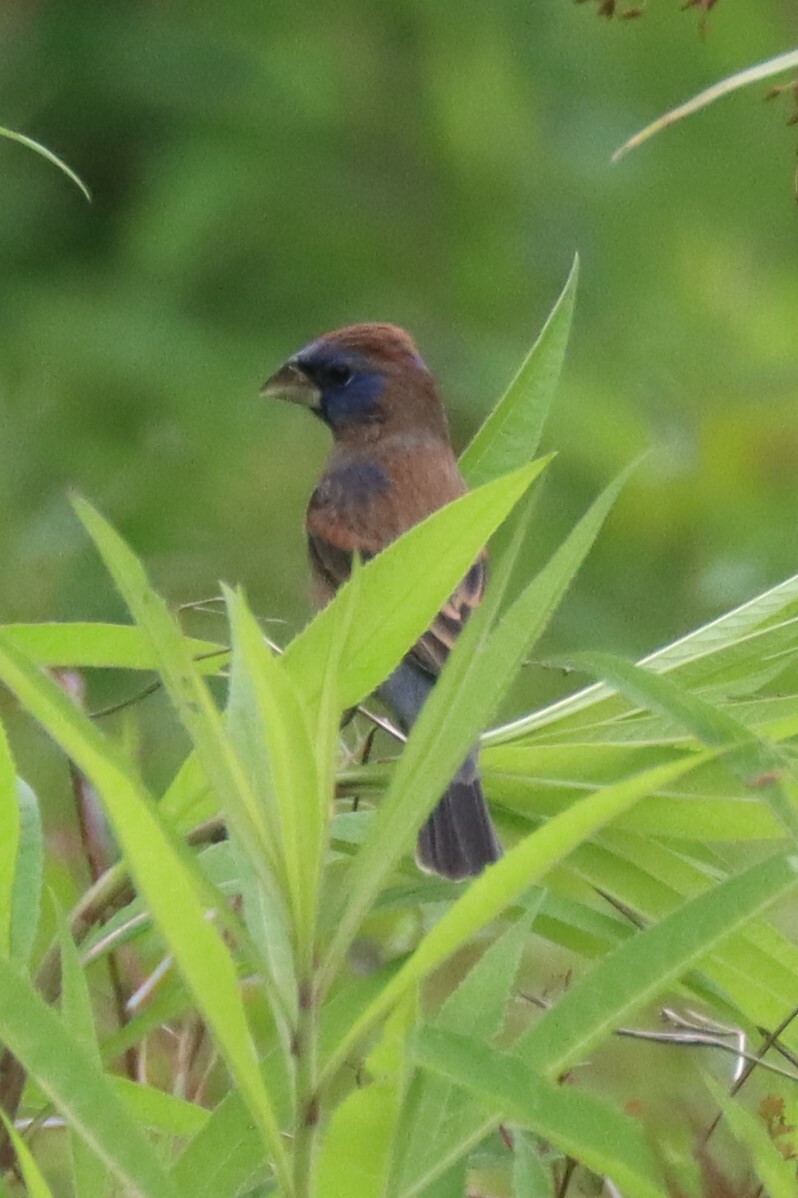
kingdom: Animalia
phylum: Chordata
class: Aves
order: Passeriformes
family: Cardinalidae
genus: Passerina
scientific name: Passerina caerulea
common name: Blue grosbeak
